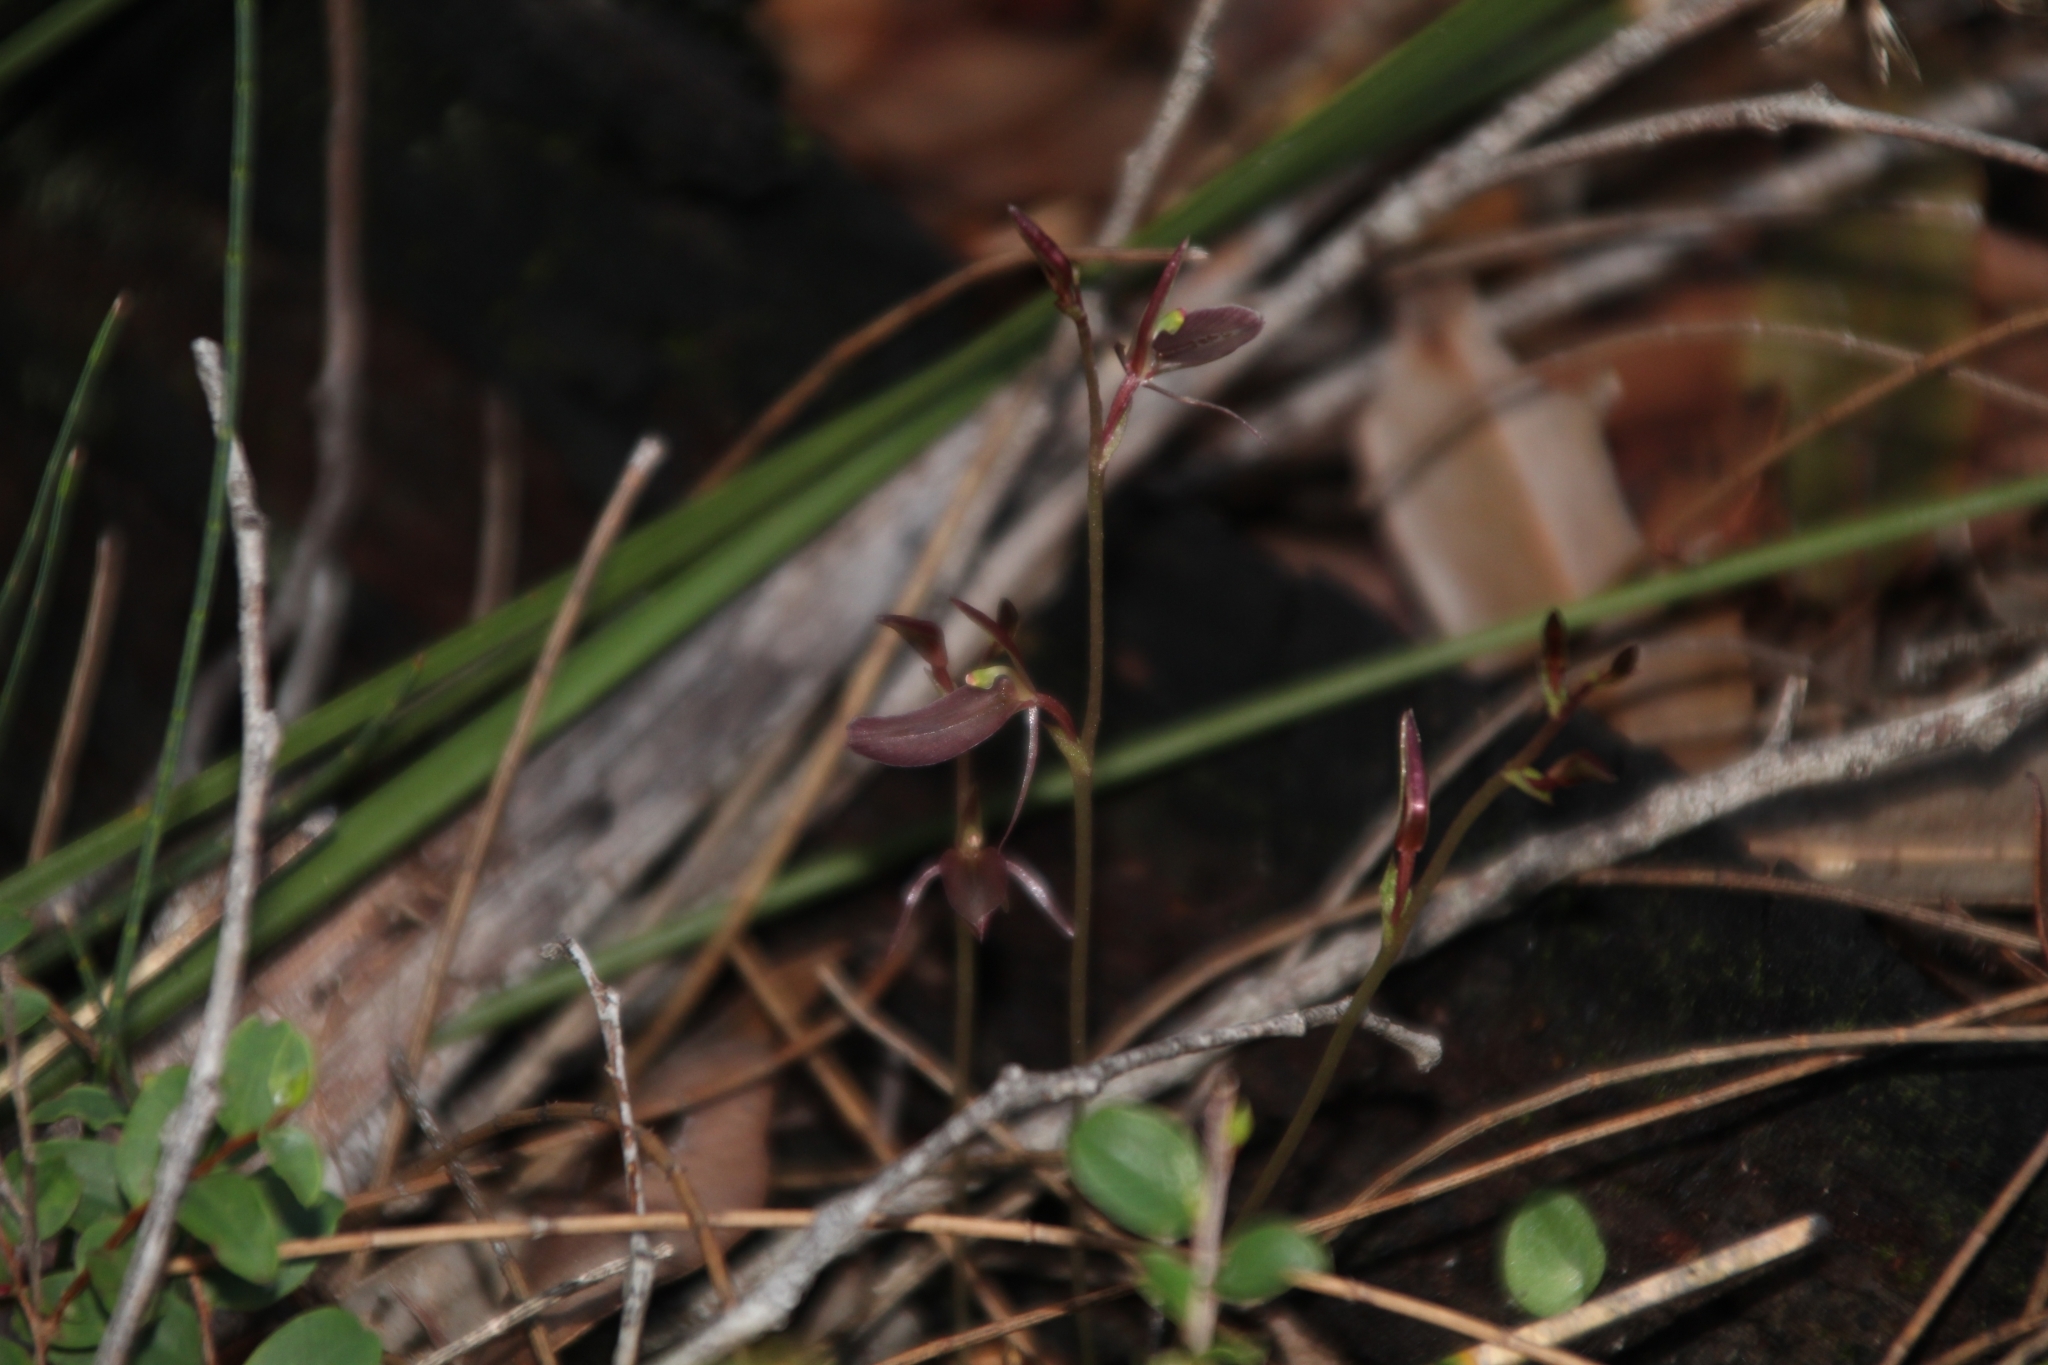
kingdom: Plantae
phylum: Tracheophyta
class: Liliopsida
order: Asparagales
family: Orchidaceae
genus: Cyrtostylis
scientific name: Cyrtostylis robusta
